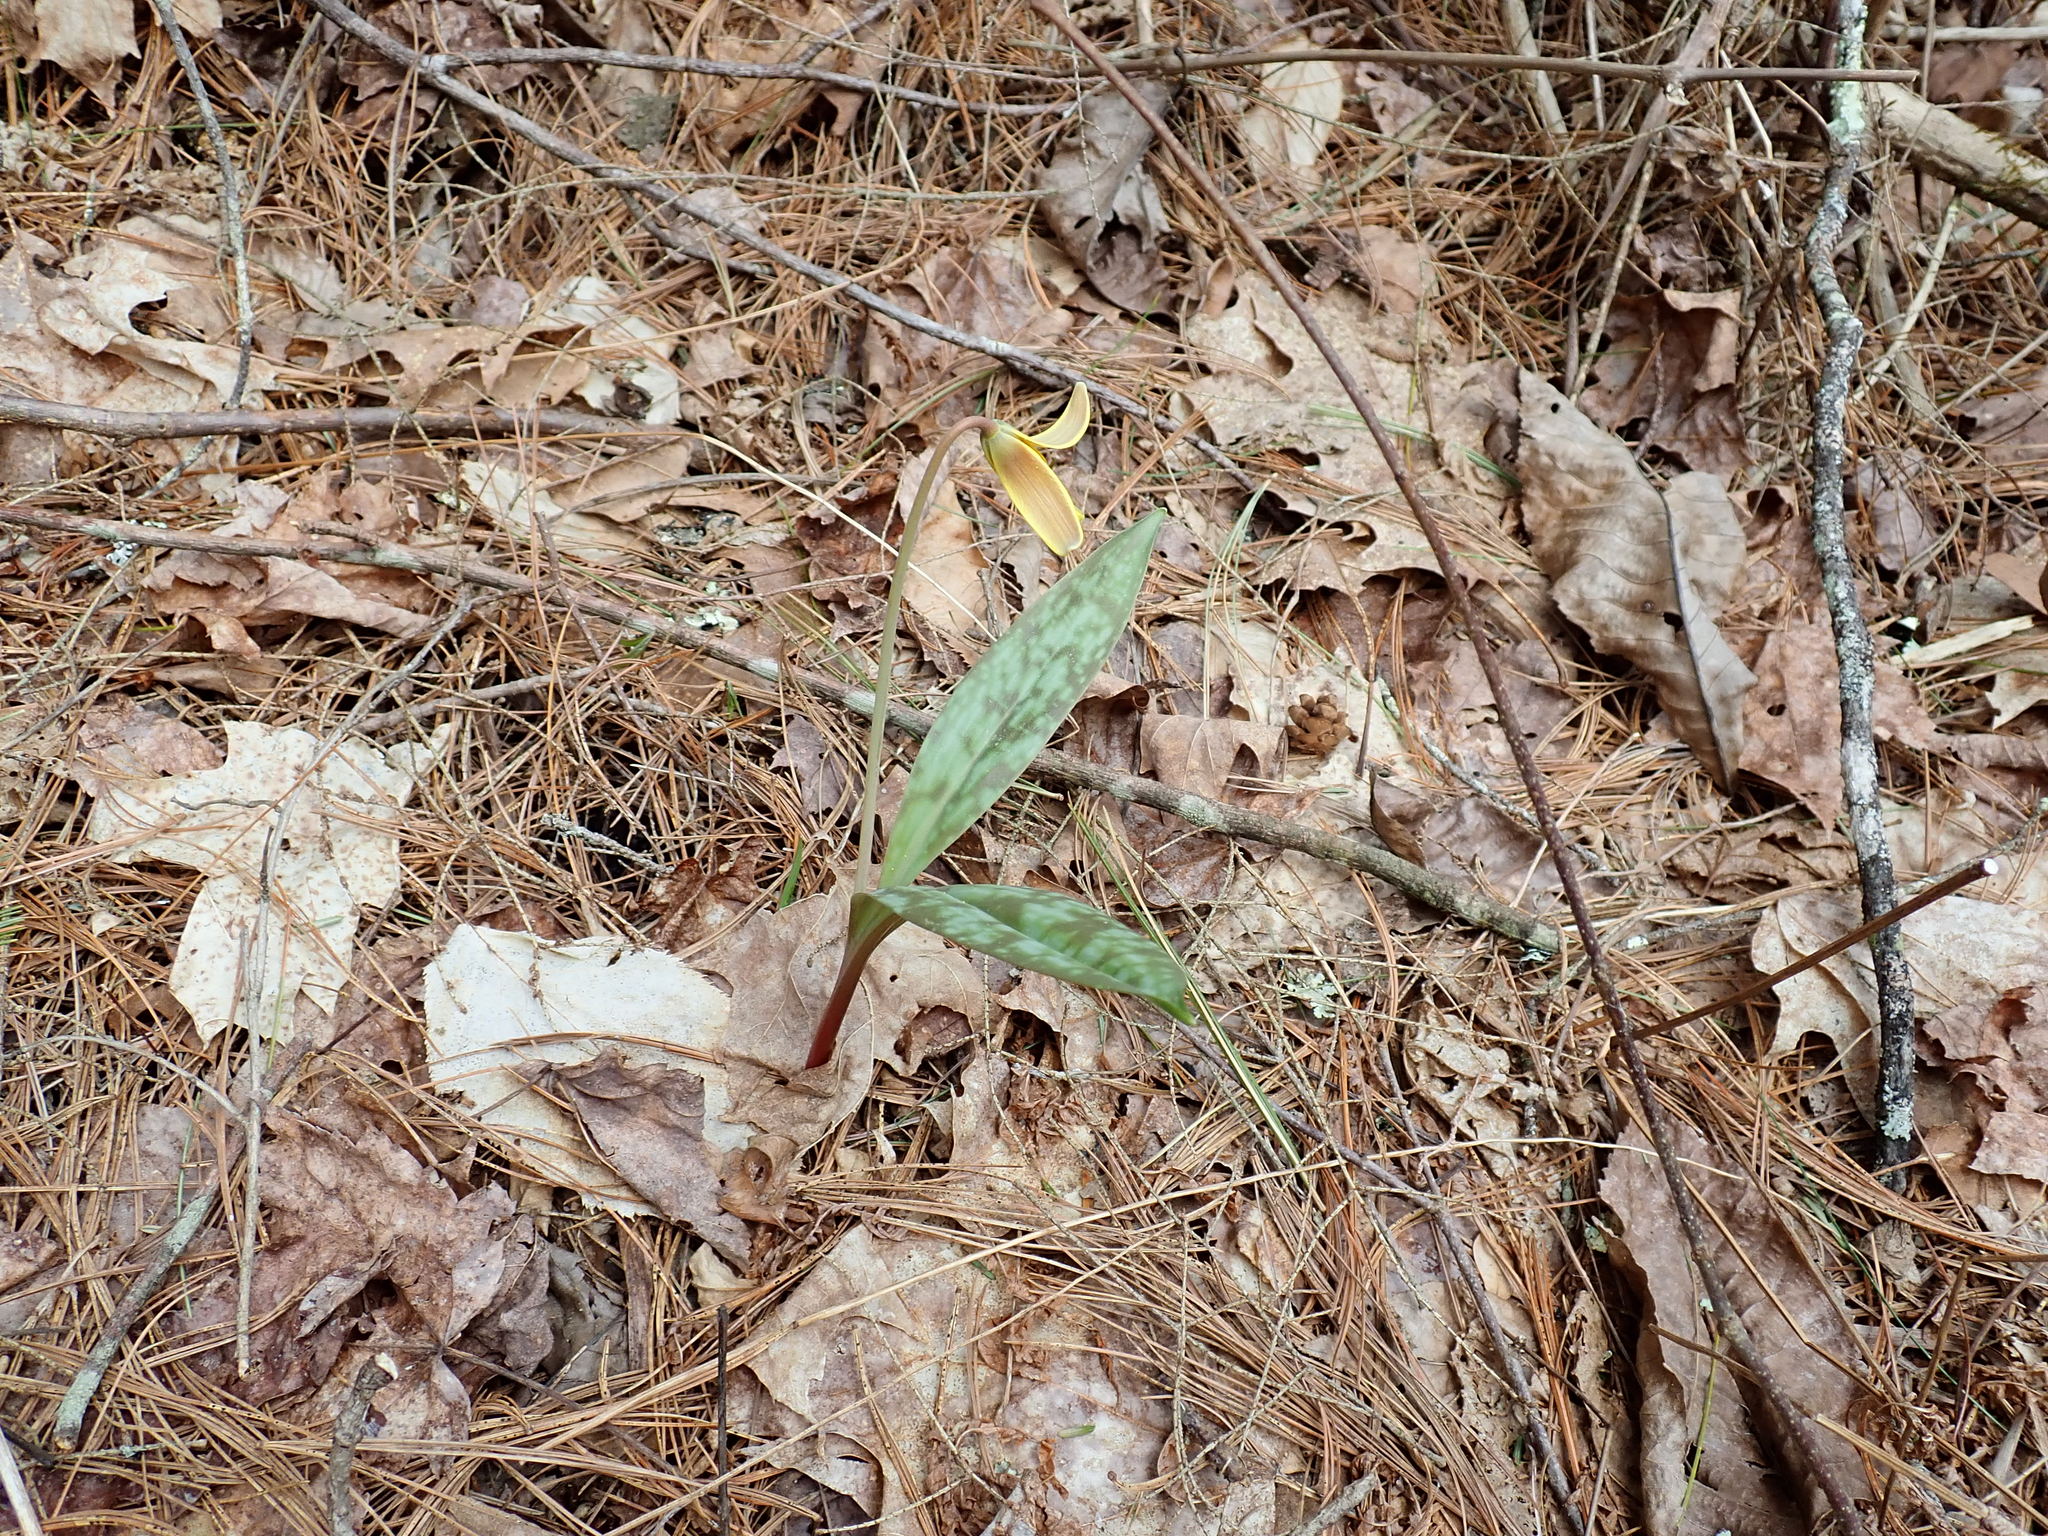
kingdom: Plantae
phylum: Tracheophyta
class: Liliopsida
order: Liliales
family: Liliaceae
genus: Erythronium
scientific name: Erythronium americanum
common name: Yellow adder's-tongue
